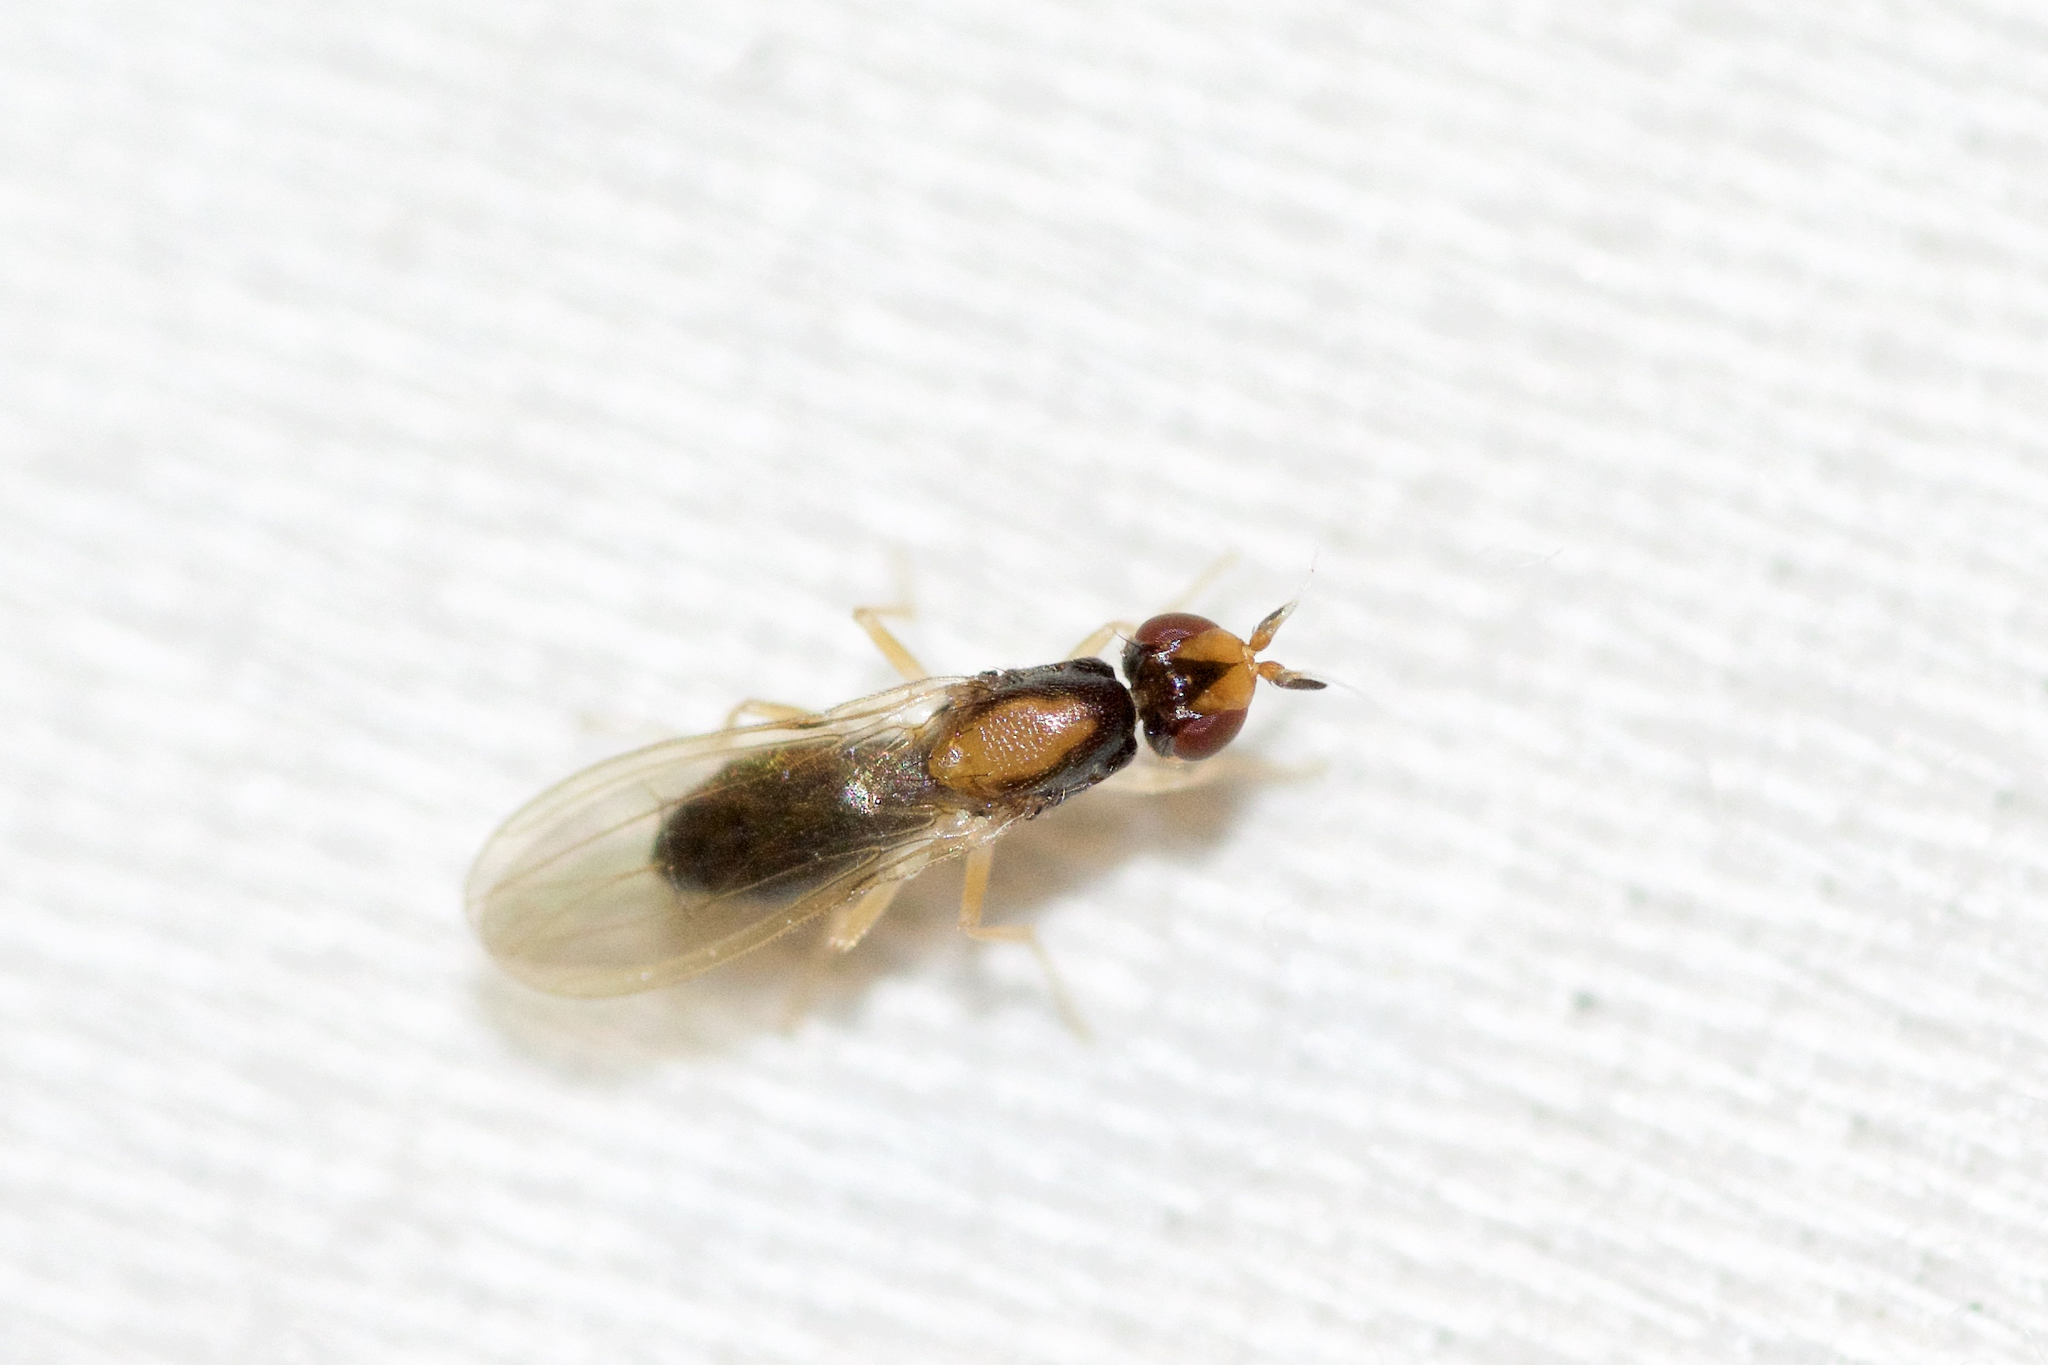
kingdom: Animalia
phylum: Arthropoda
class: Insecta
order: Diptera
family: Psilidae
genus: Psila
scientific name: Psila collaris
